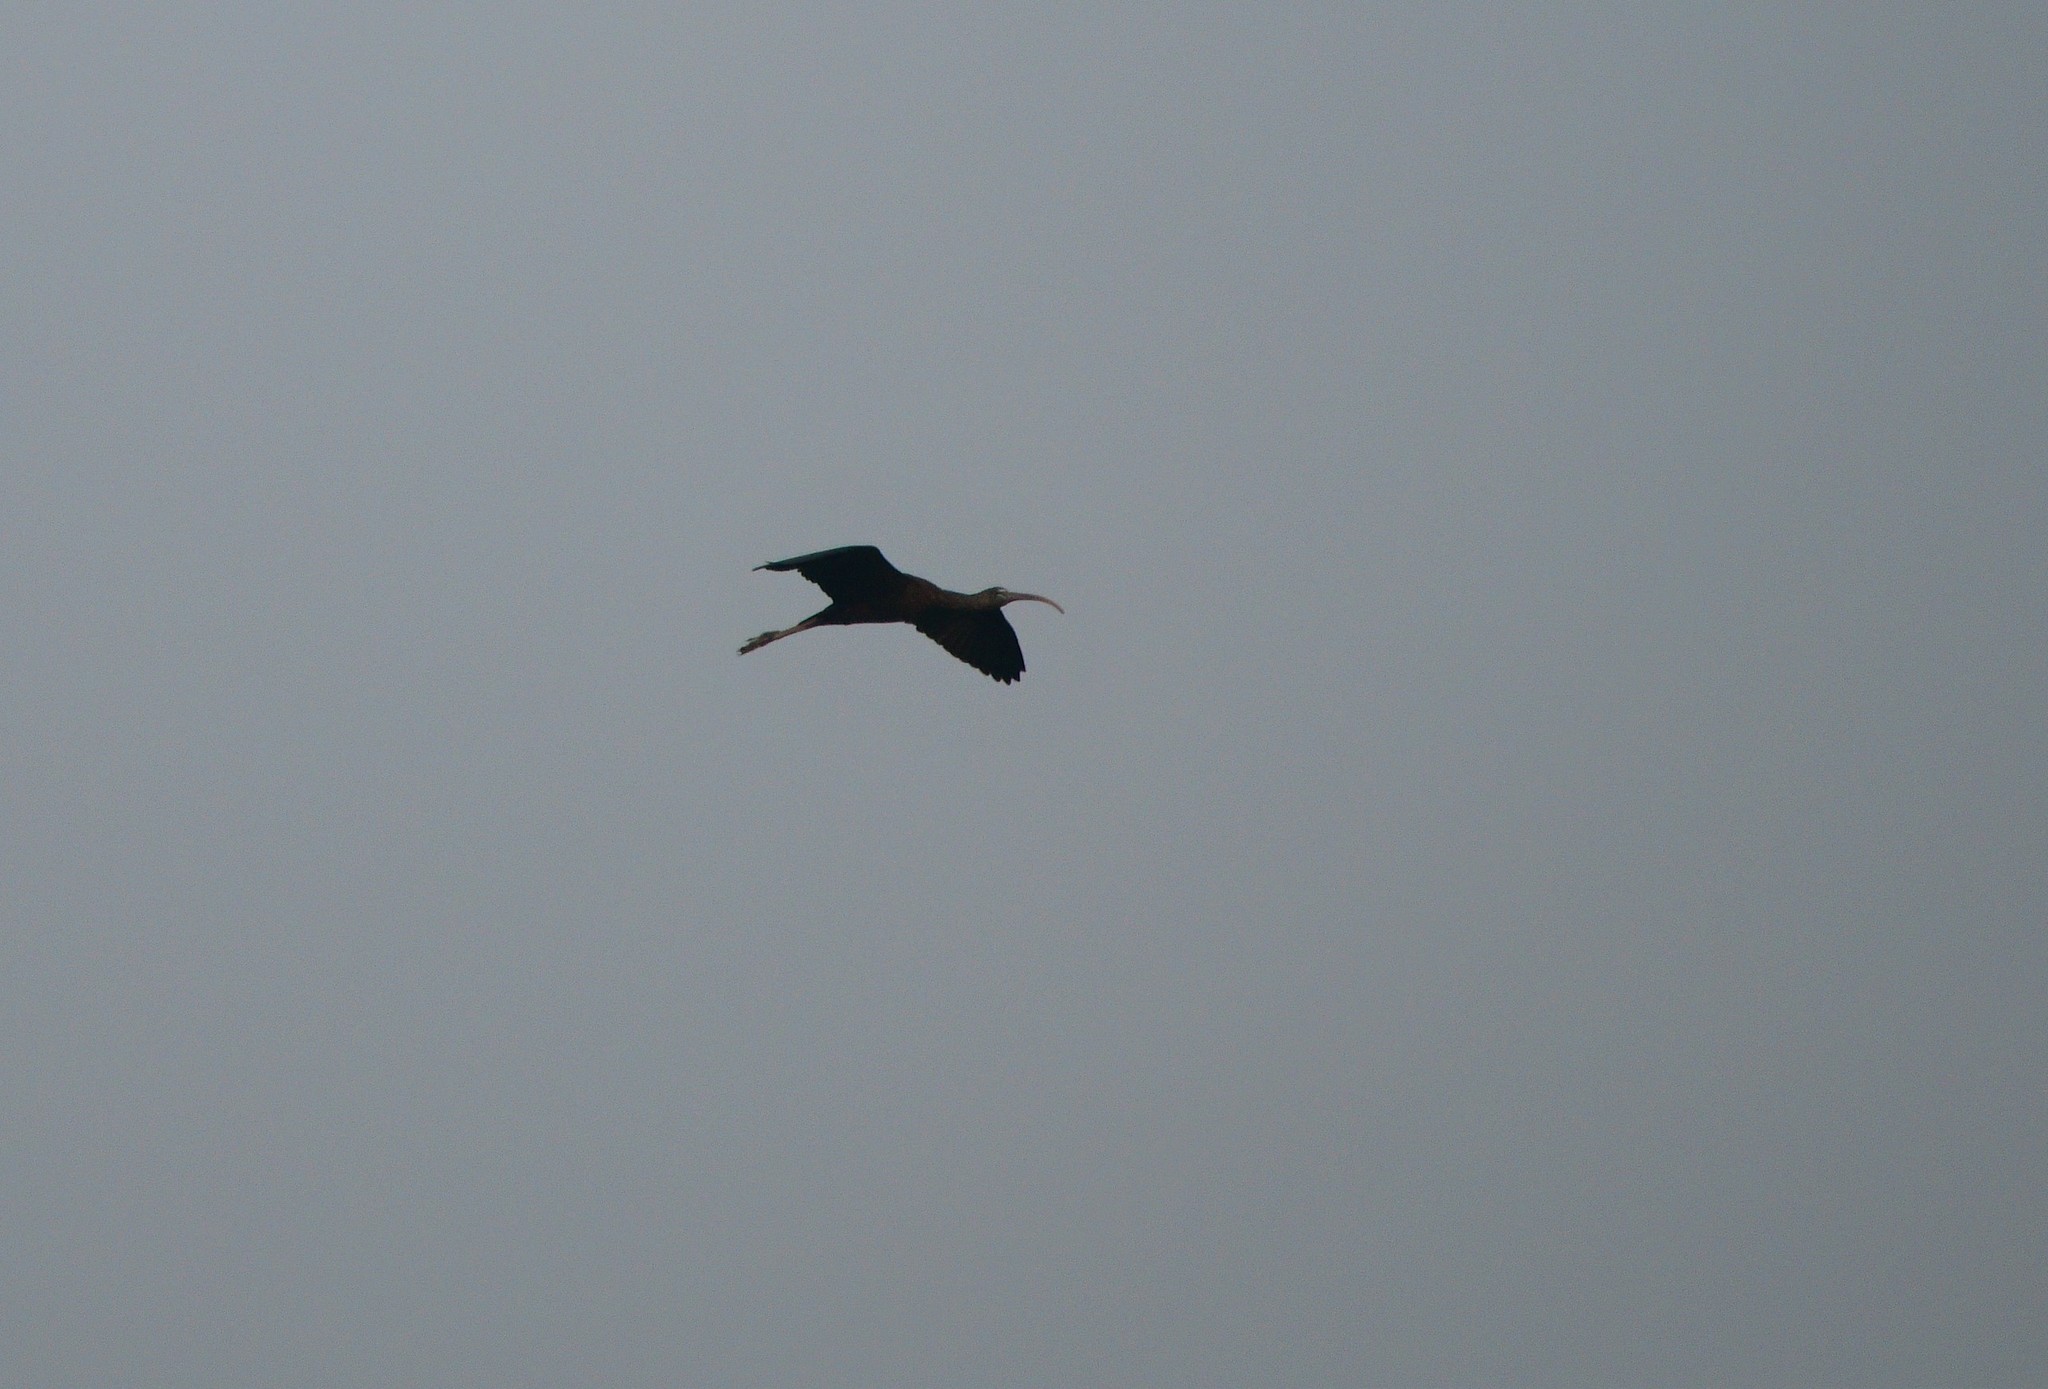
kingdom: Animalia
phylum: Chordata
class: Aves
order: Pelecaniformes
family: Threskiornithidae
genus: Plegadis
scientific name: Plegadis falcinellus
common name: Glossy ibis
